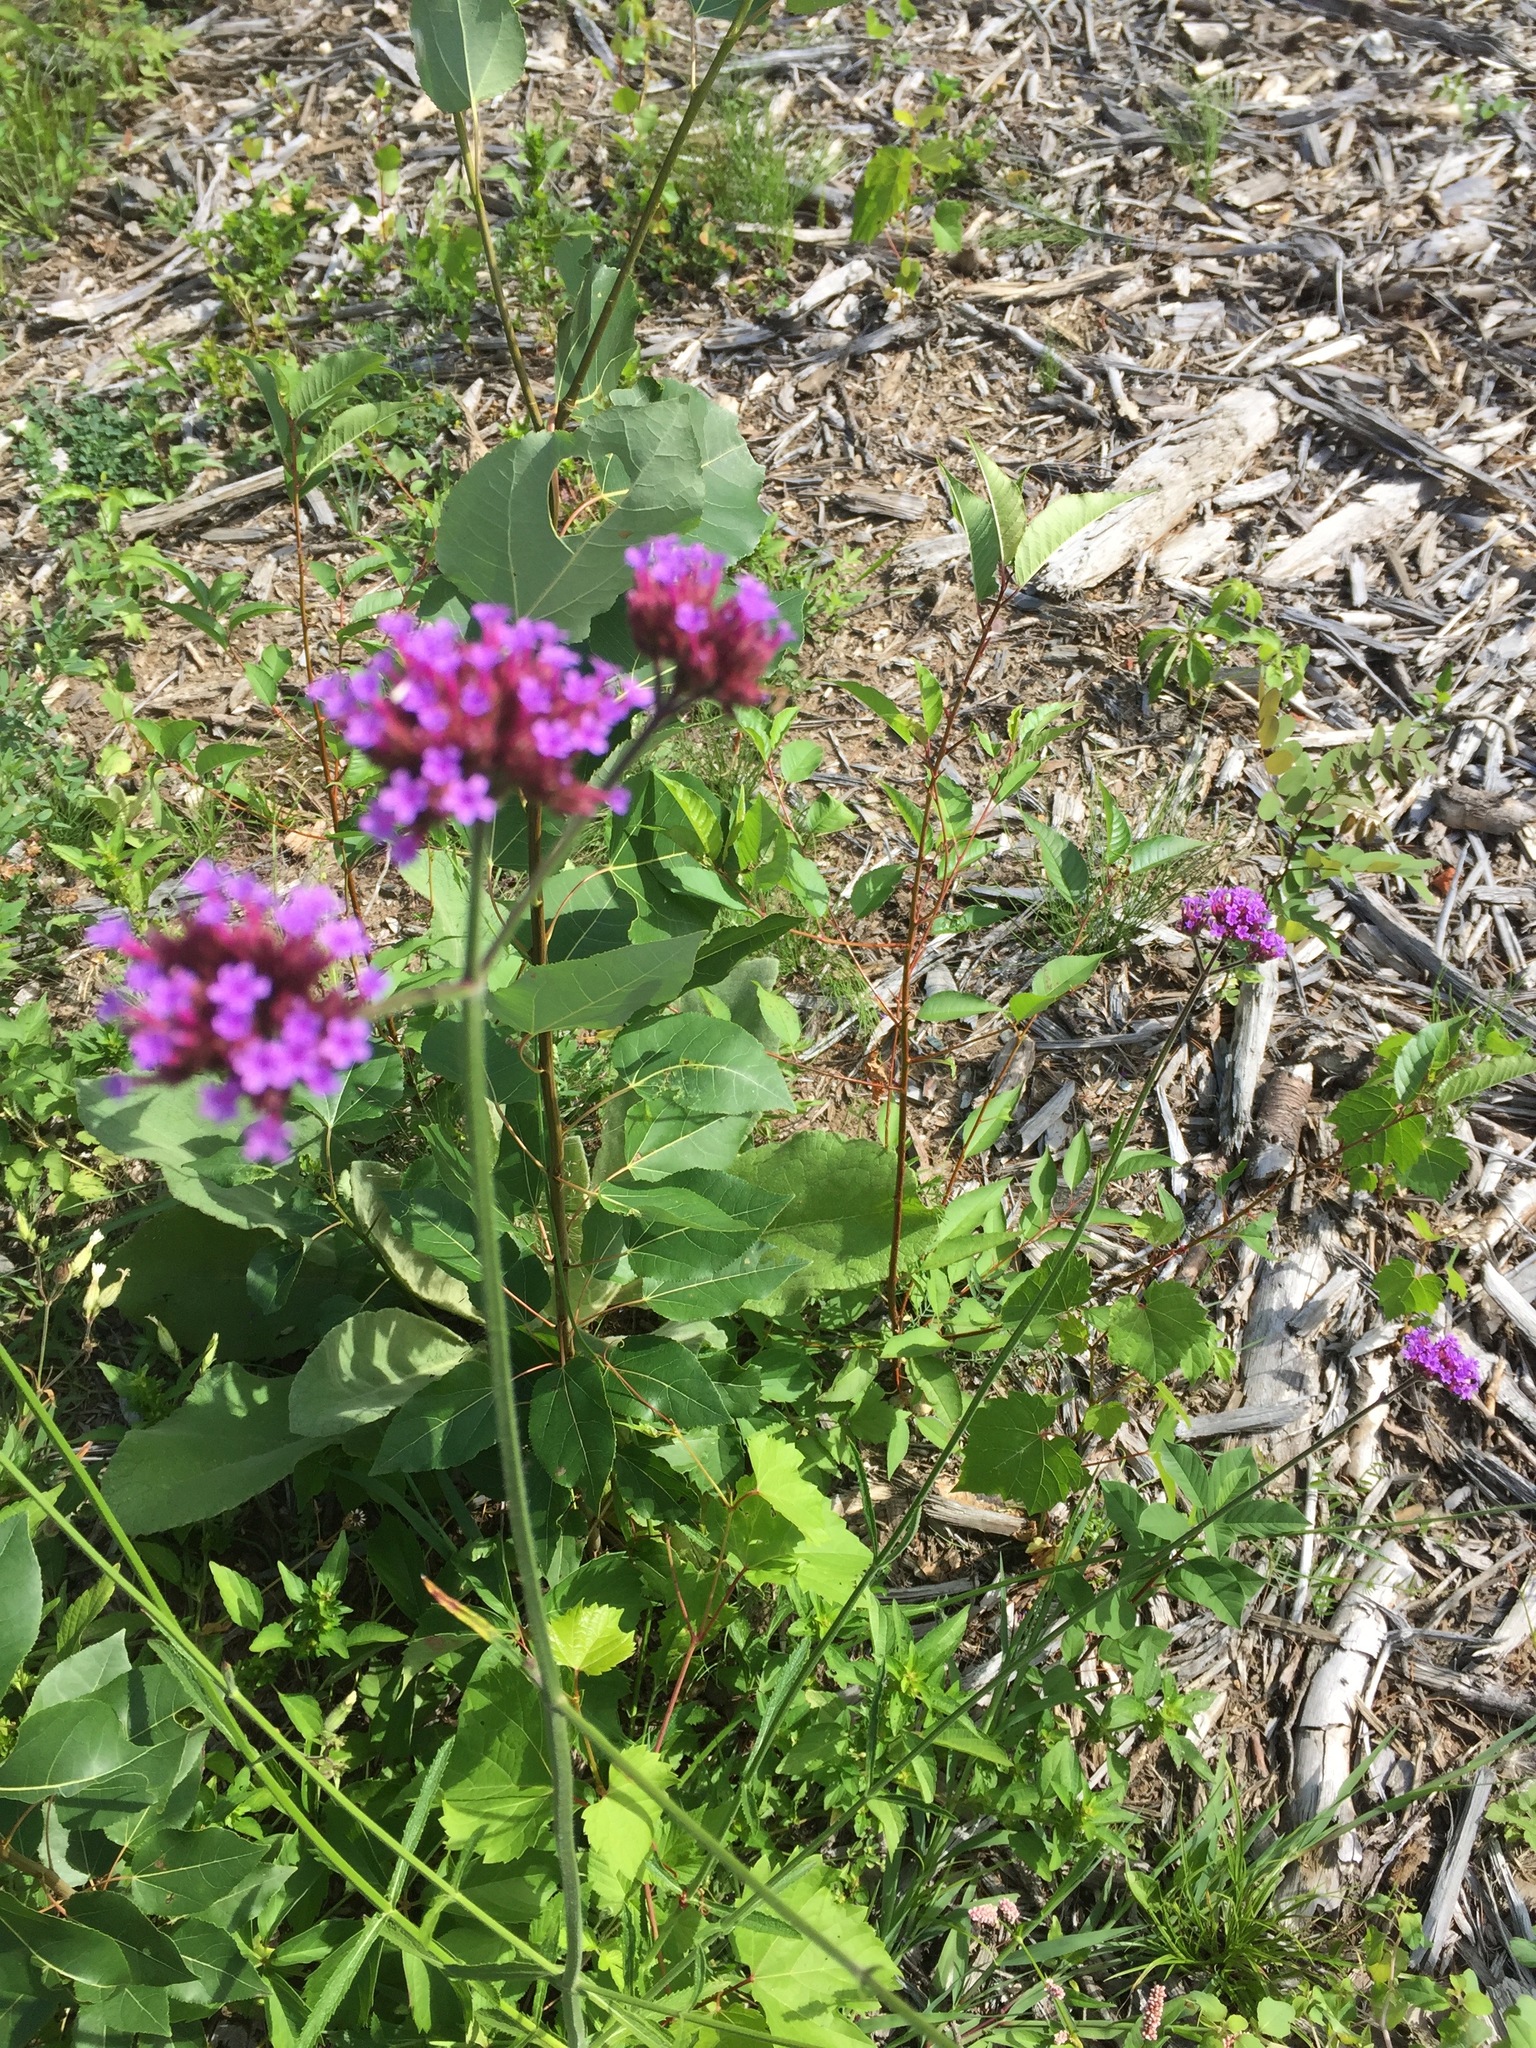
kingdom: Plantae
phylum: Tracheophyta
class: Magnoliopsida
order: Lamiales
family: Verbenaceae
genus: Verbena
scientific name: Verbena bonariensis
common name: Purpletop vervain
